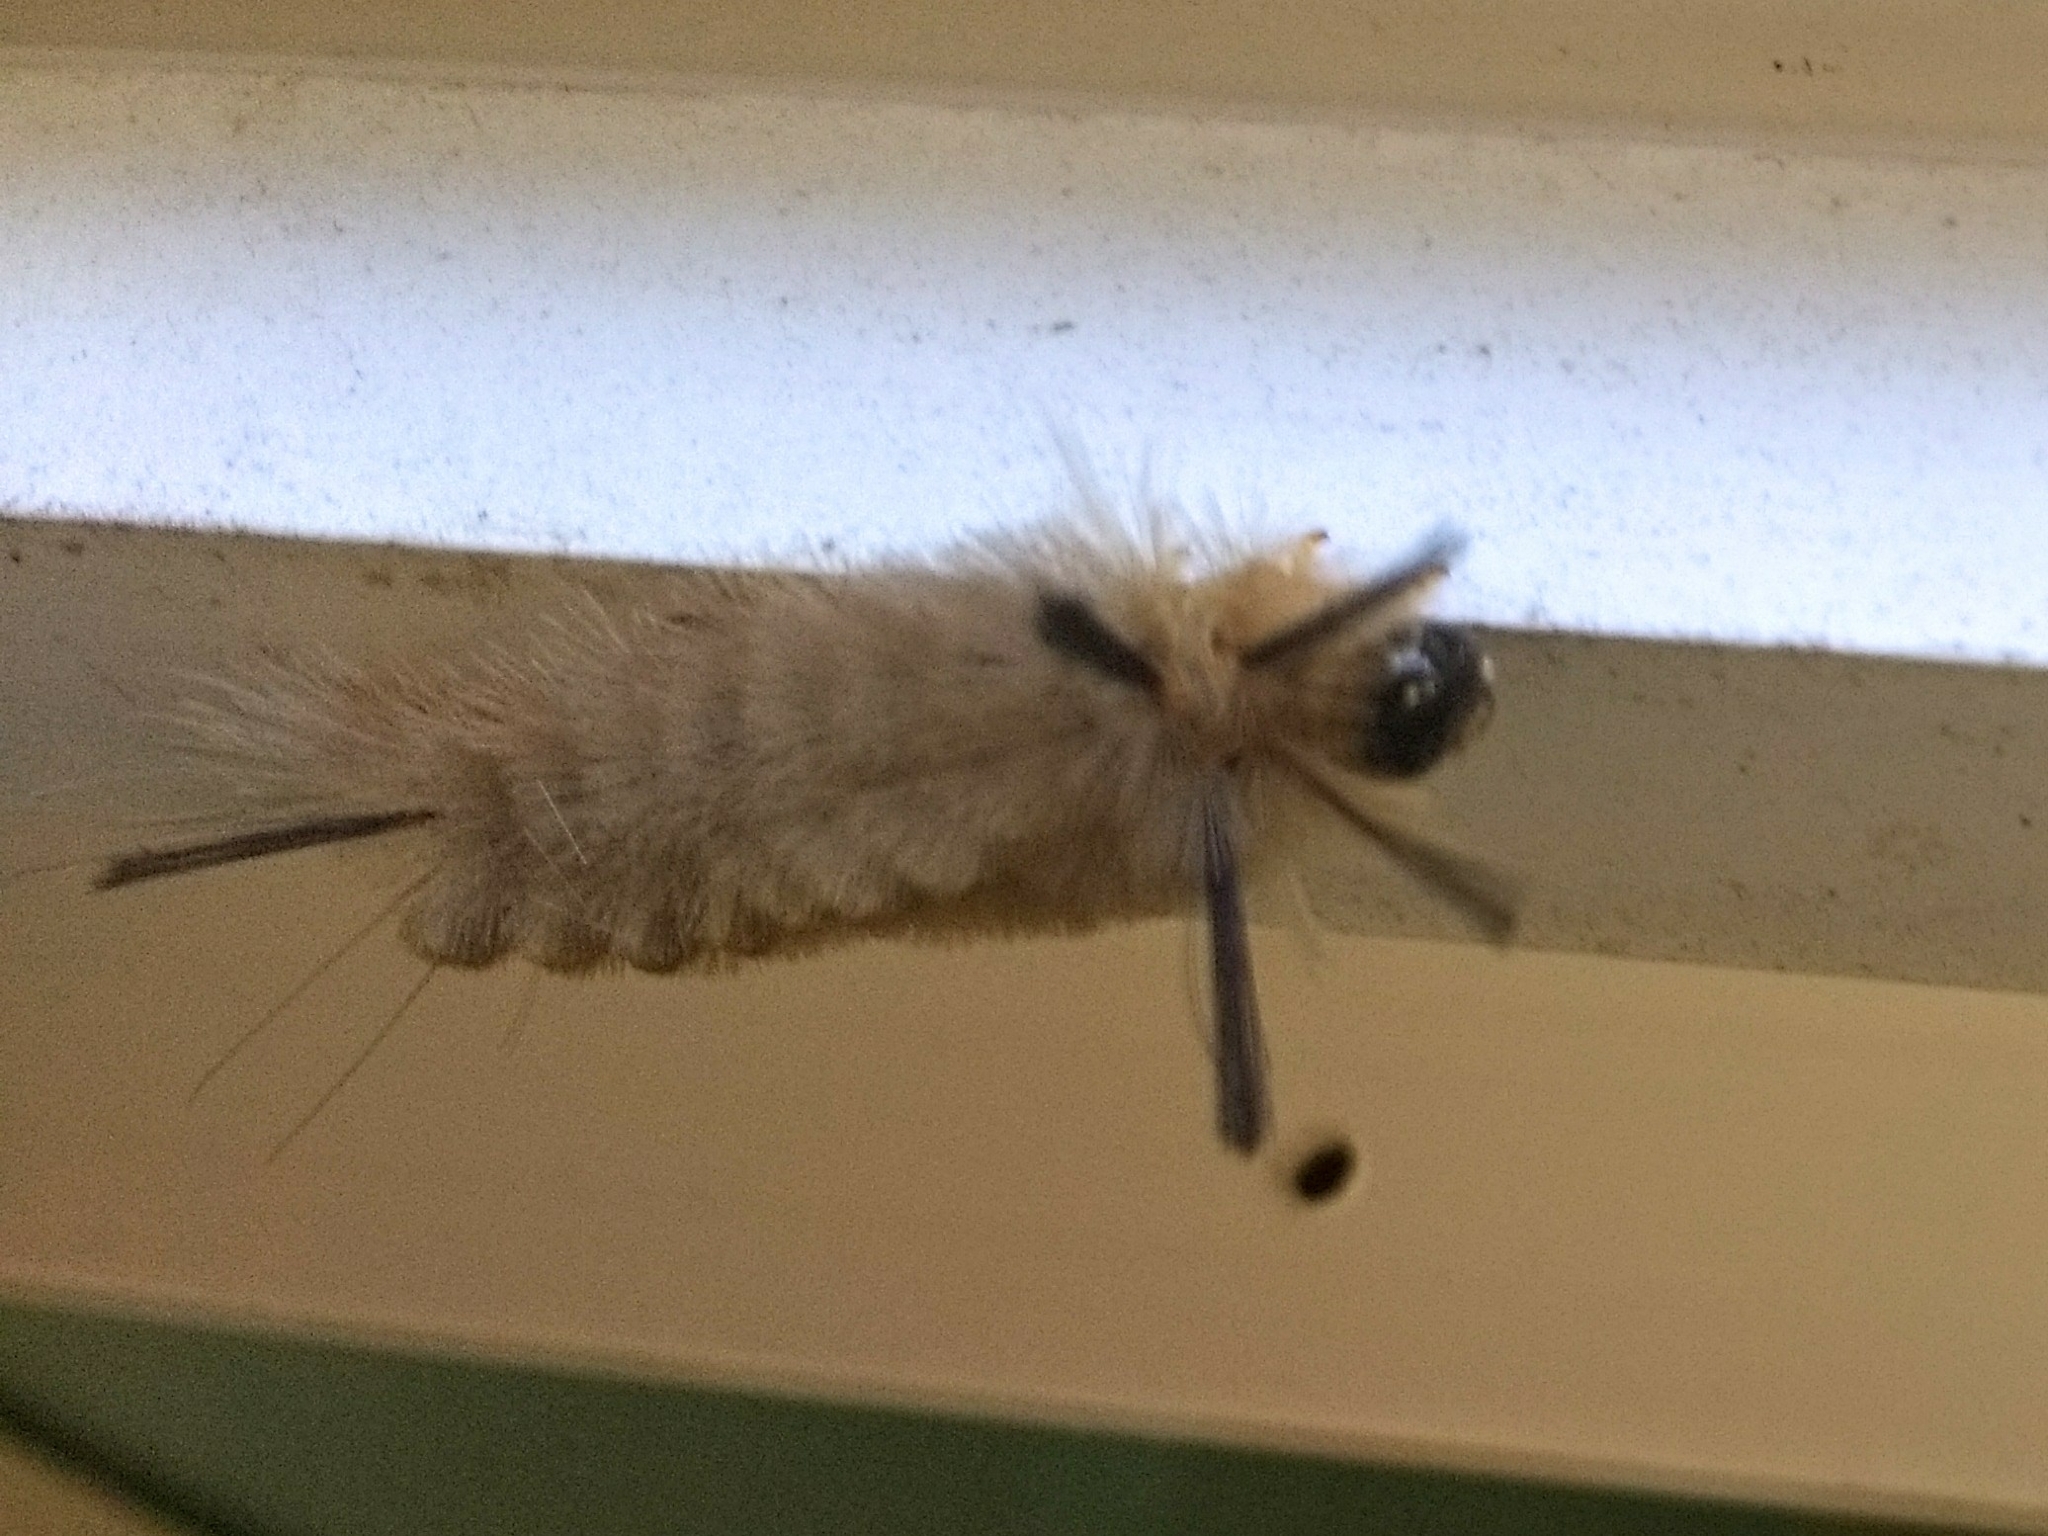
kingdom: Animalia
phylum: Arthropoda
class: Insecta
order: Lepidoptera
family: Erebidae
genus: Halysidota
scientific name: Halysidota tessellaris
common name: Banded tussock moth
